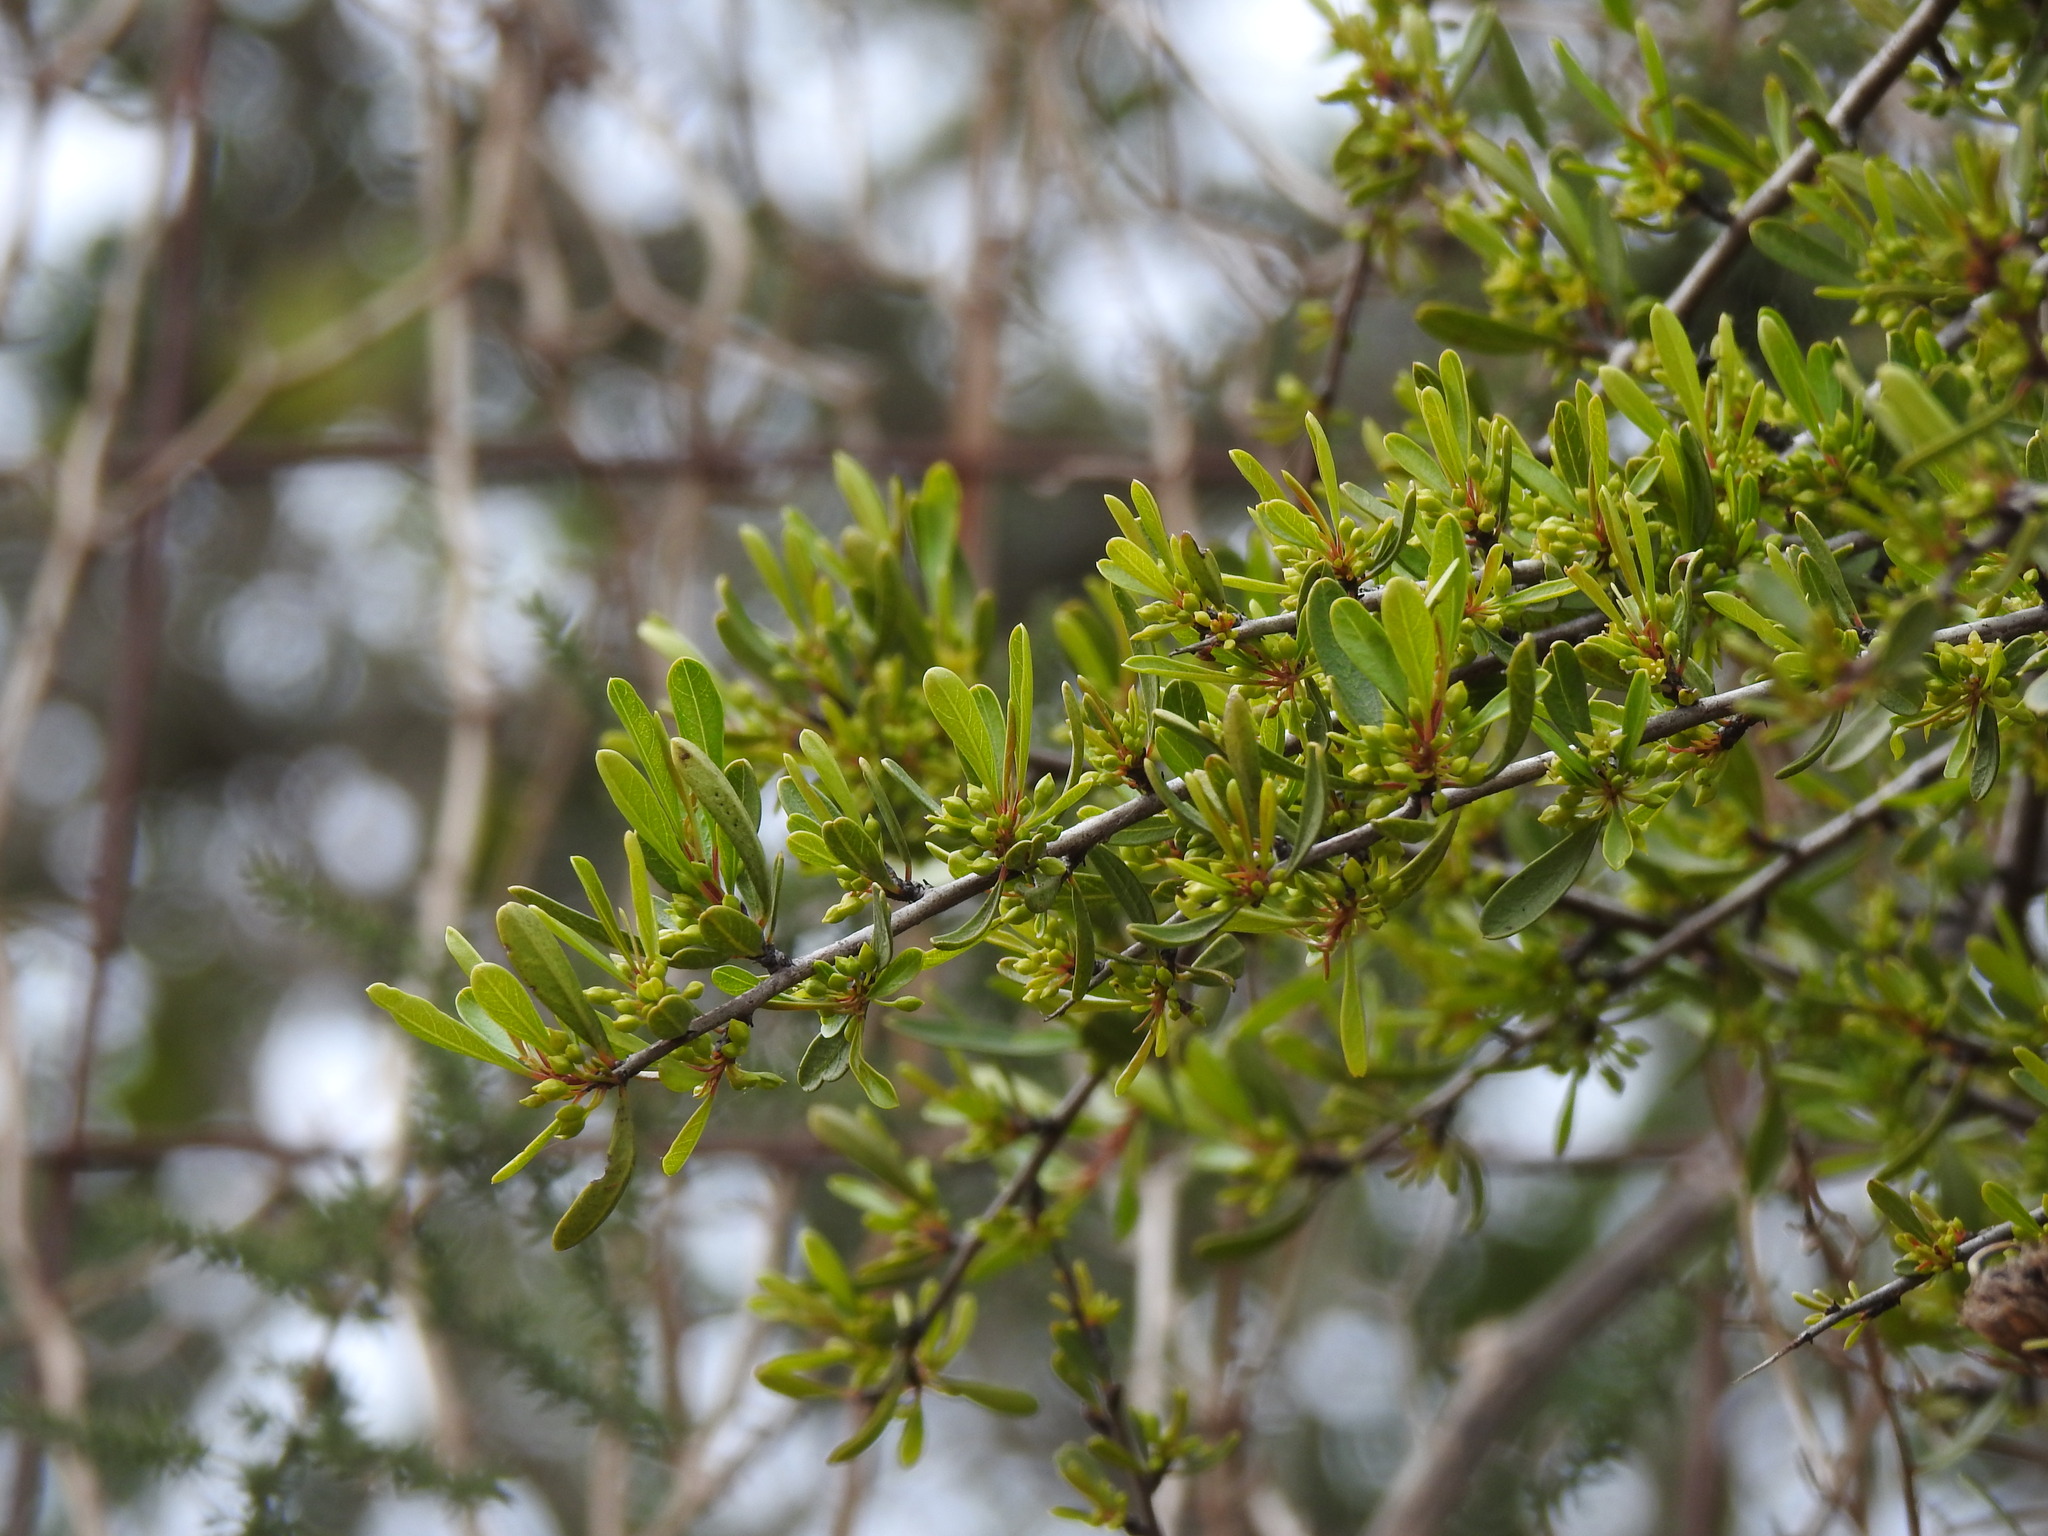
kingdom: Plantae
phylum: Tracheophyta
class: Magnoliopsida
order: Rosales
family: Rhamnaceae
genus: Rhamnus
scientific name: Rhamnus oleoides
